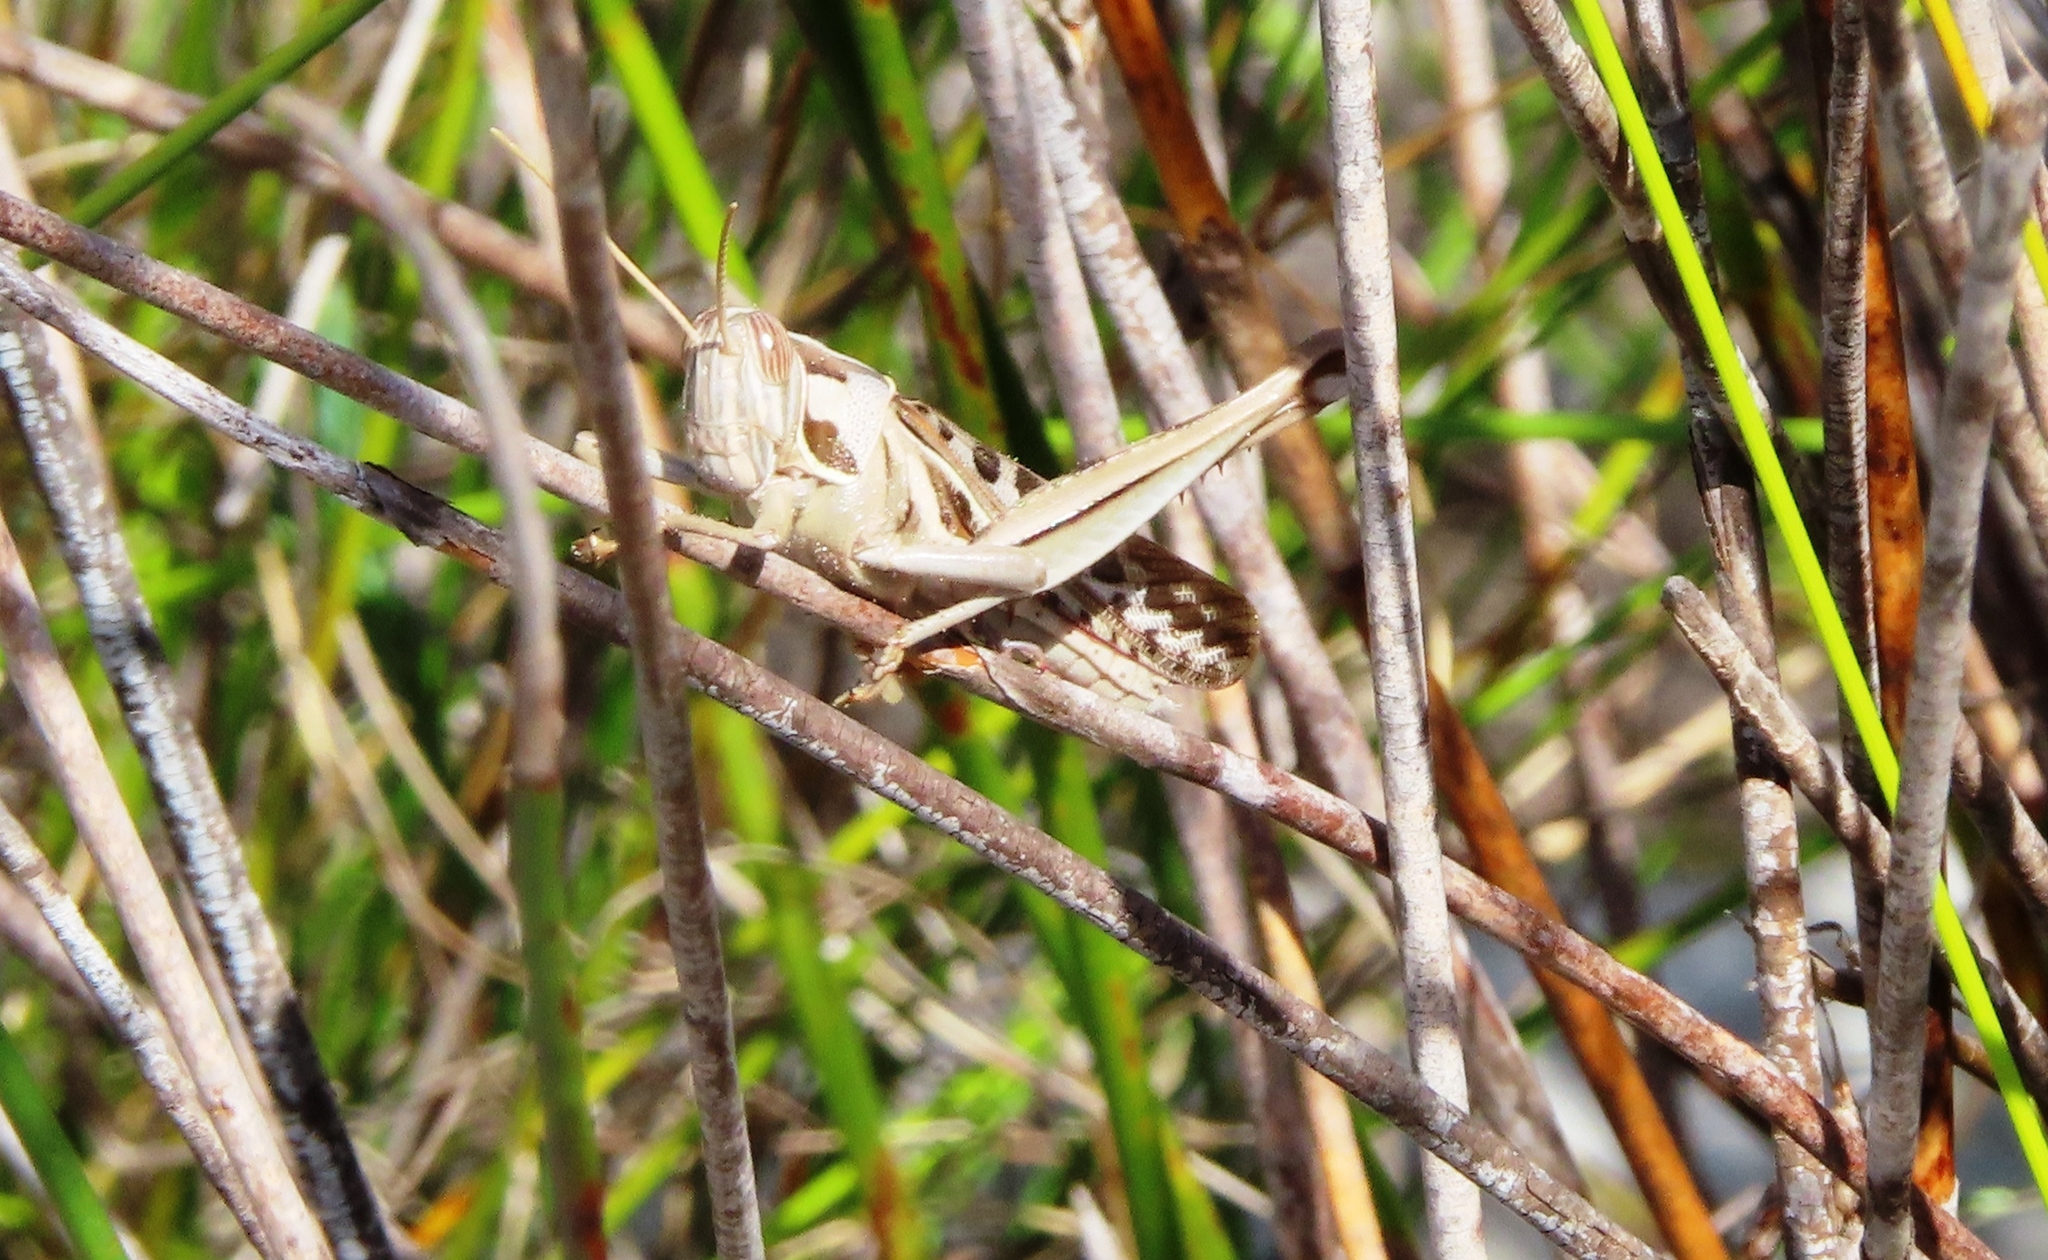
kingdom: Animalia
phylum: Arthropoda
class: Insecta
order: Orthoptera
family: Acrididae
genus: Cyrtacanthacris
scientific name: Cyrtacanthacris tatarica
